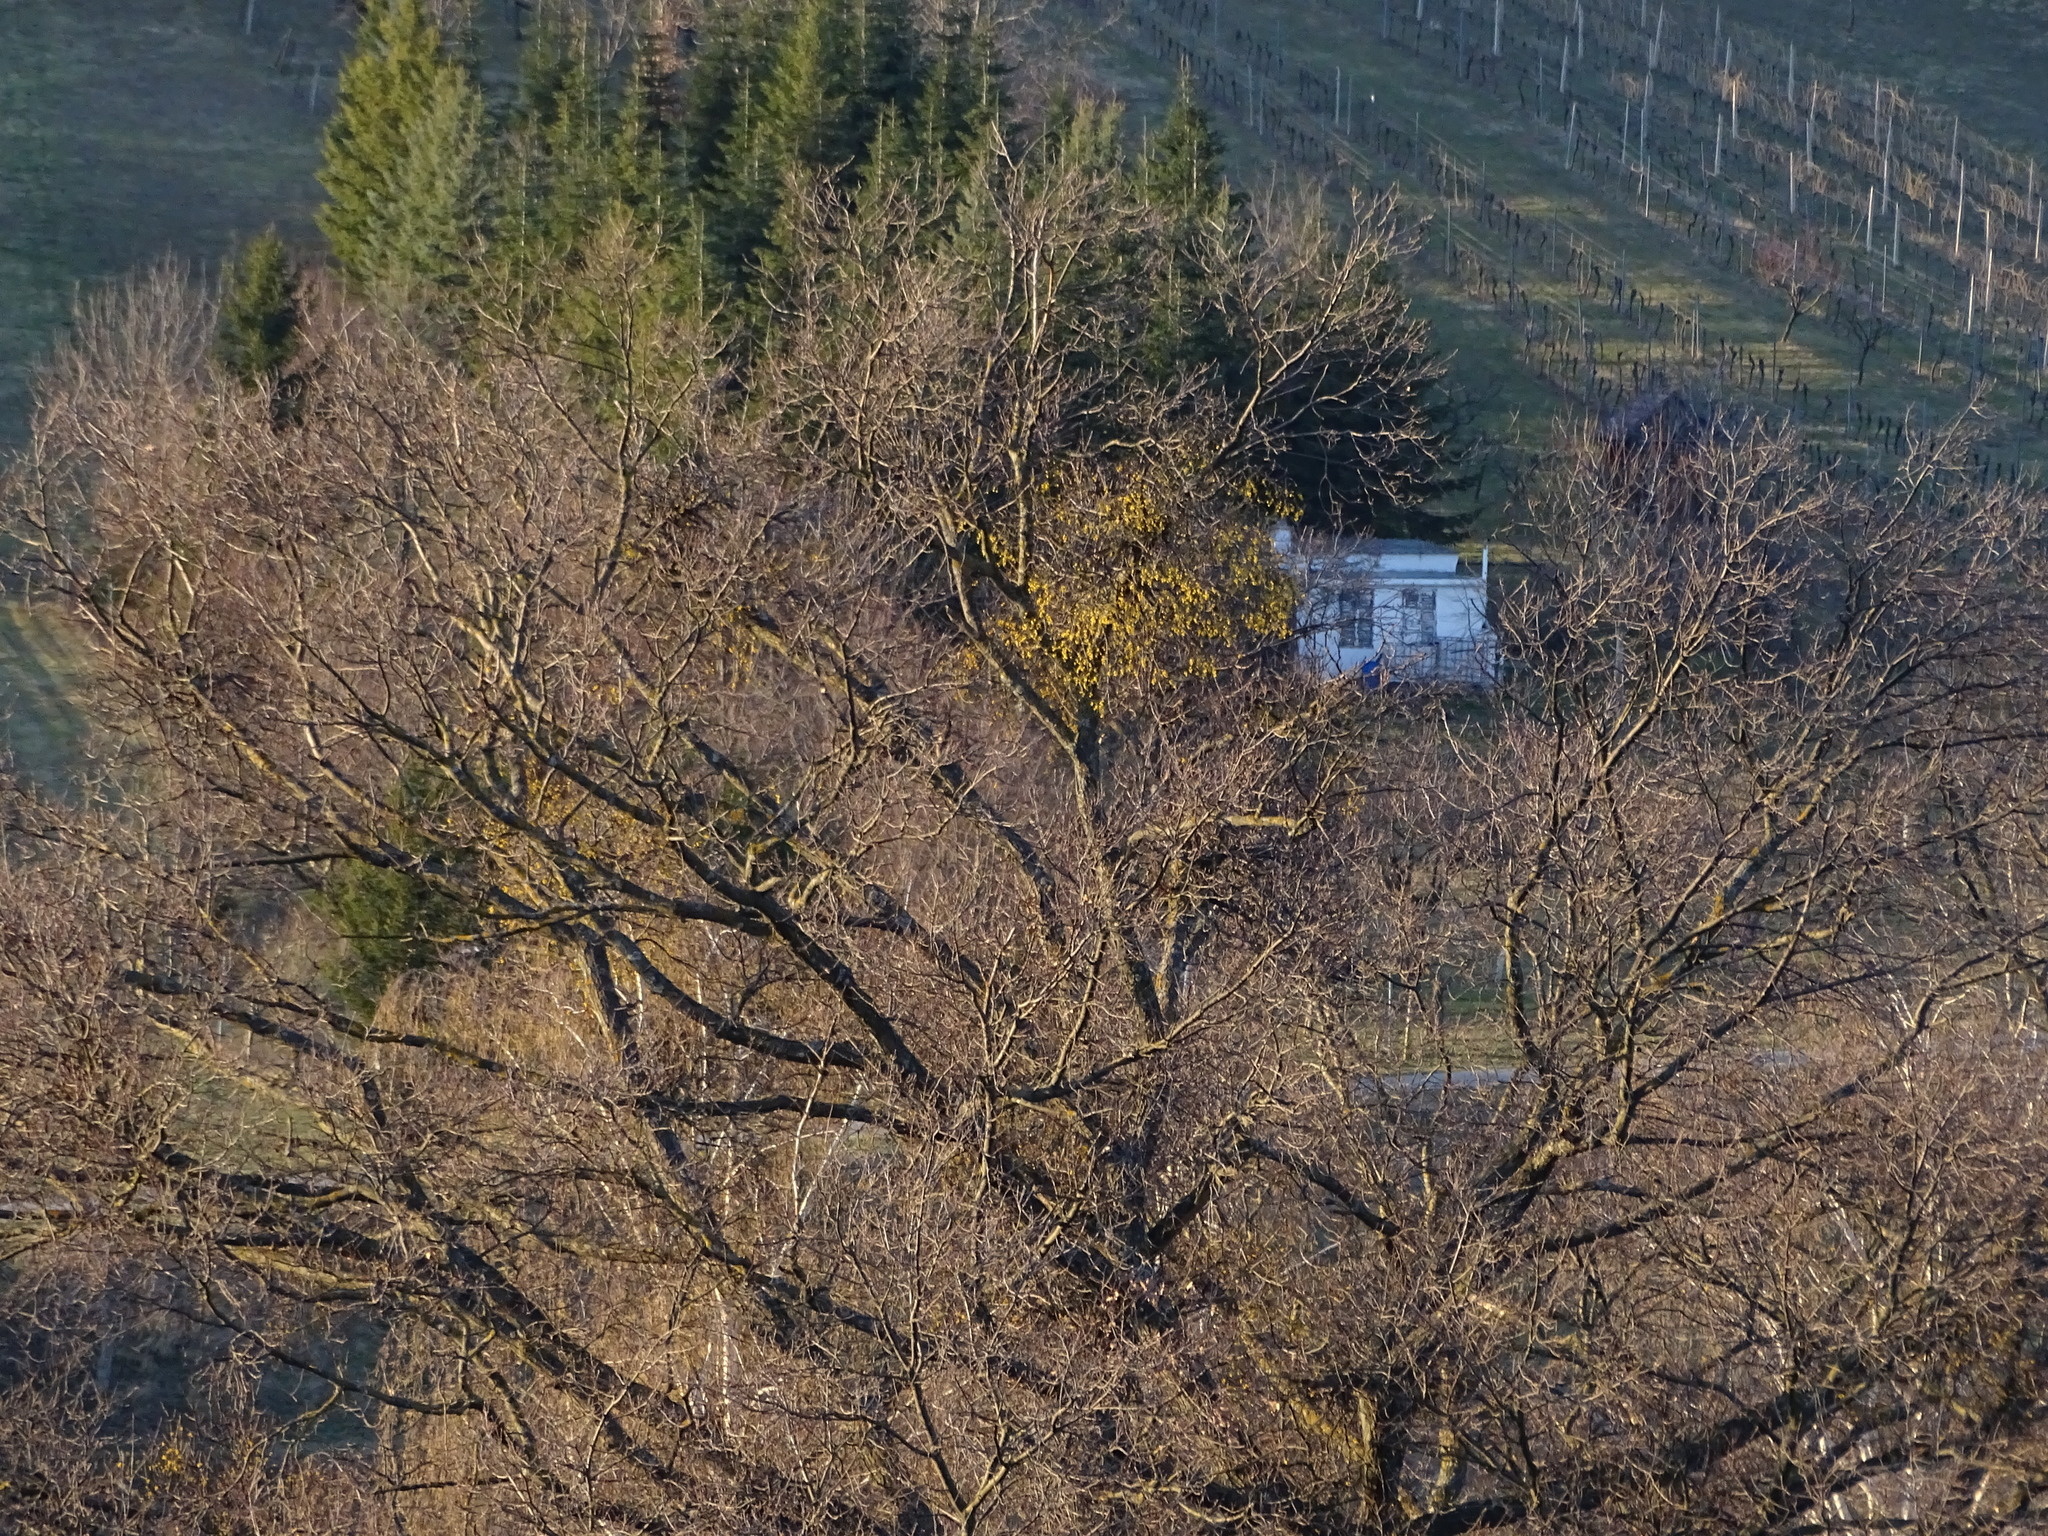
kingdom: Plantae
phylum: Tracheophyta
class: Magnoliopsida
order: Santalales
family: Loranthaceae
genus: Loranthus
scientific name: Loranthus europaeus
